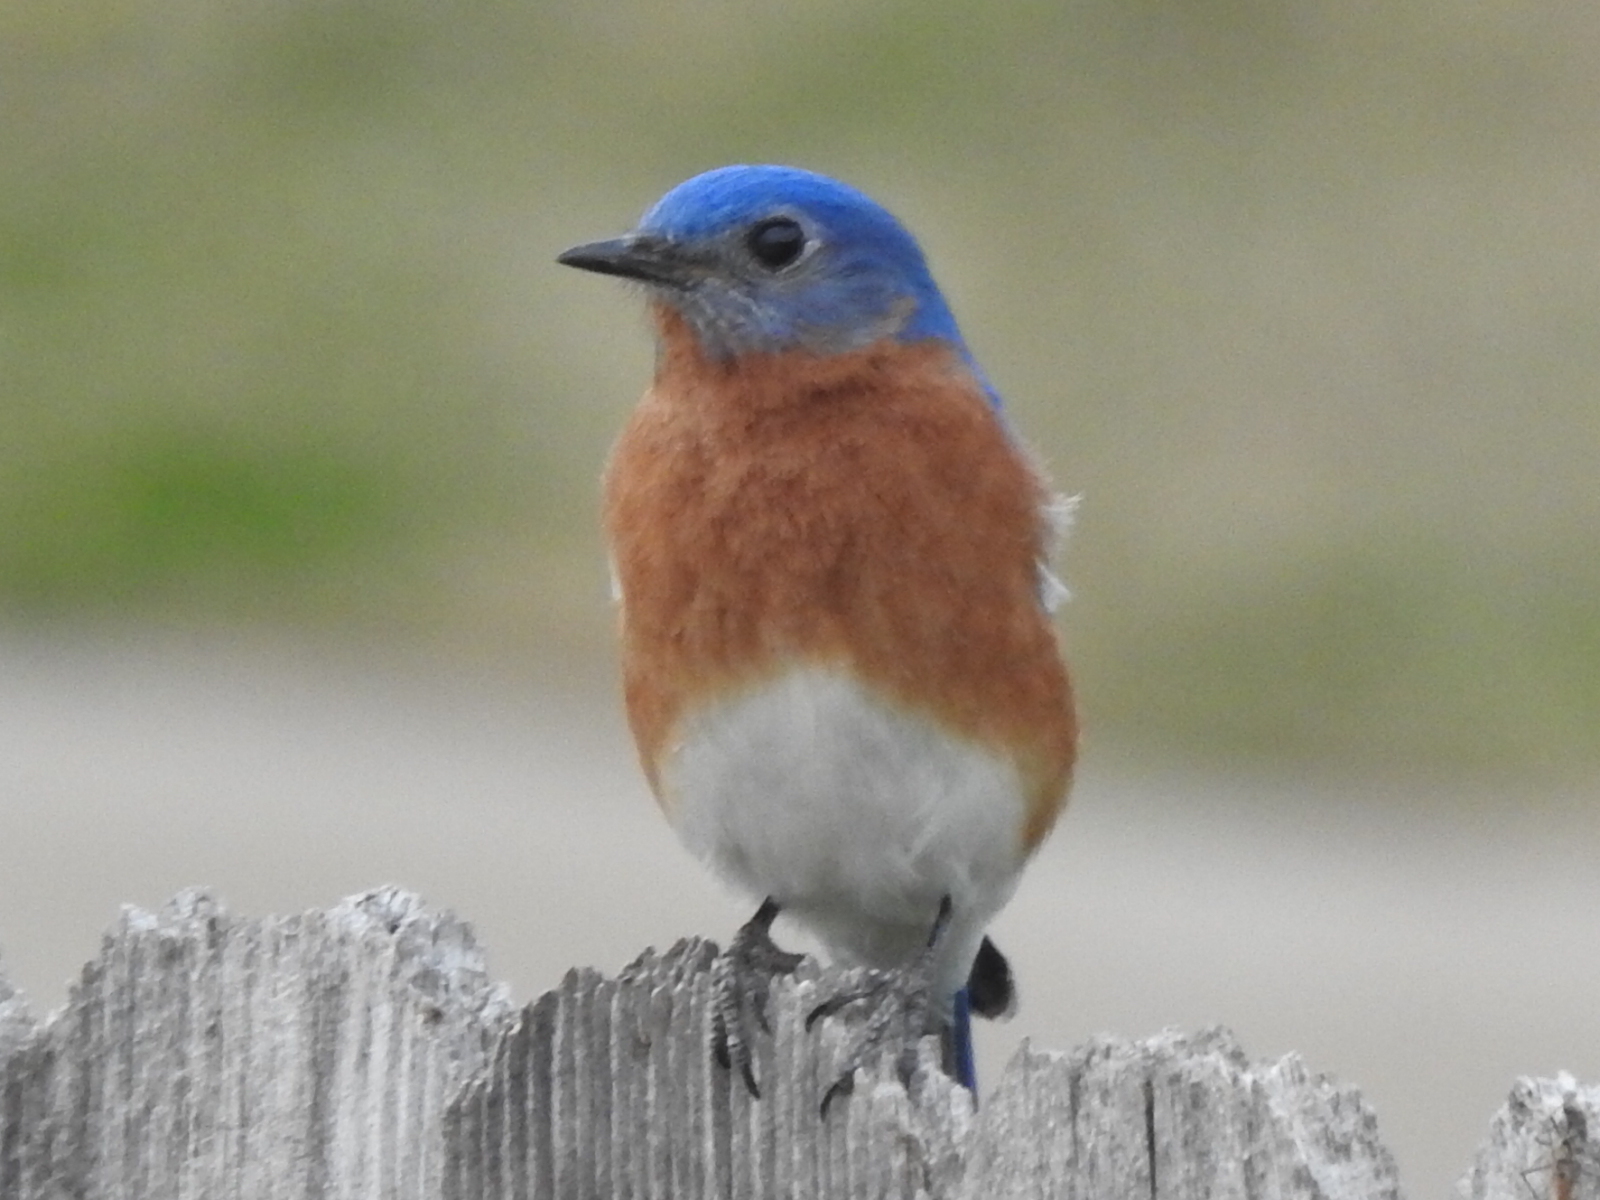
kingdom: Animalia
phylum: Chordata
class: Aves
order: Passeriformes
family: Turdidae
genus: Sialia
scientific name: Sialia sialis
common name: Eastern bluebird
